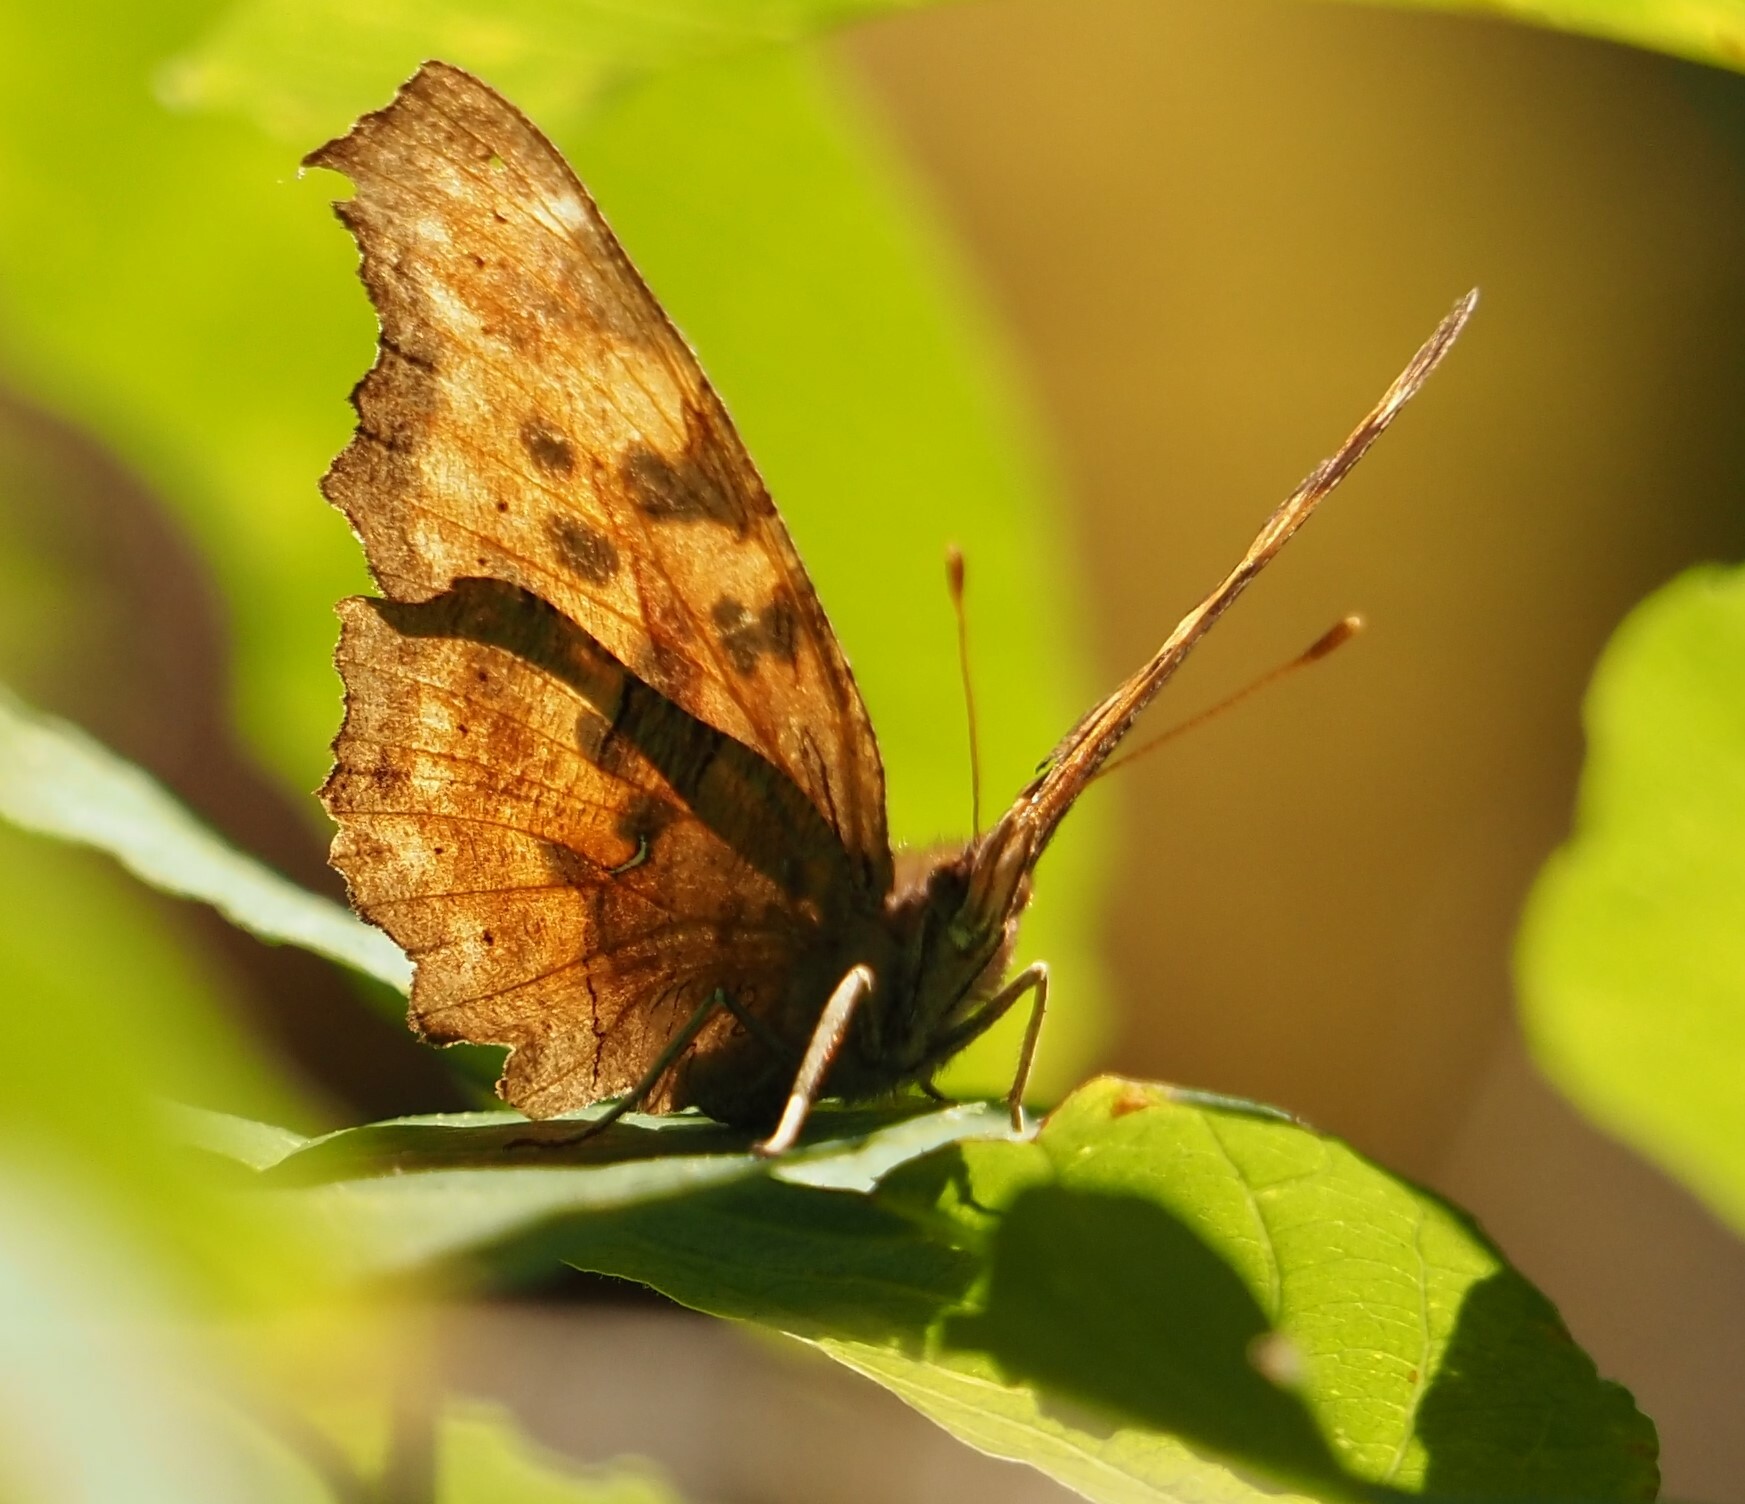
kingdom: Animalia
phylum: Arthropoda
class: Insecta
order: Lepidoptera
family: Nymphalidae
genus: Polygonia
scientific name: Polygonia satyrus
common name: Satyr angle wing
